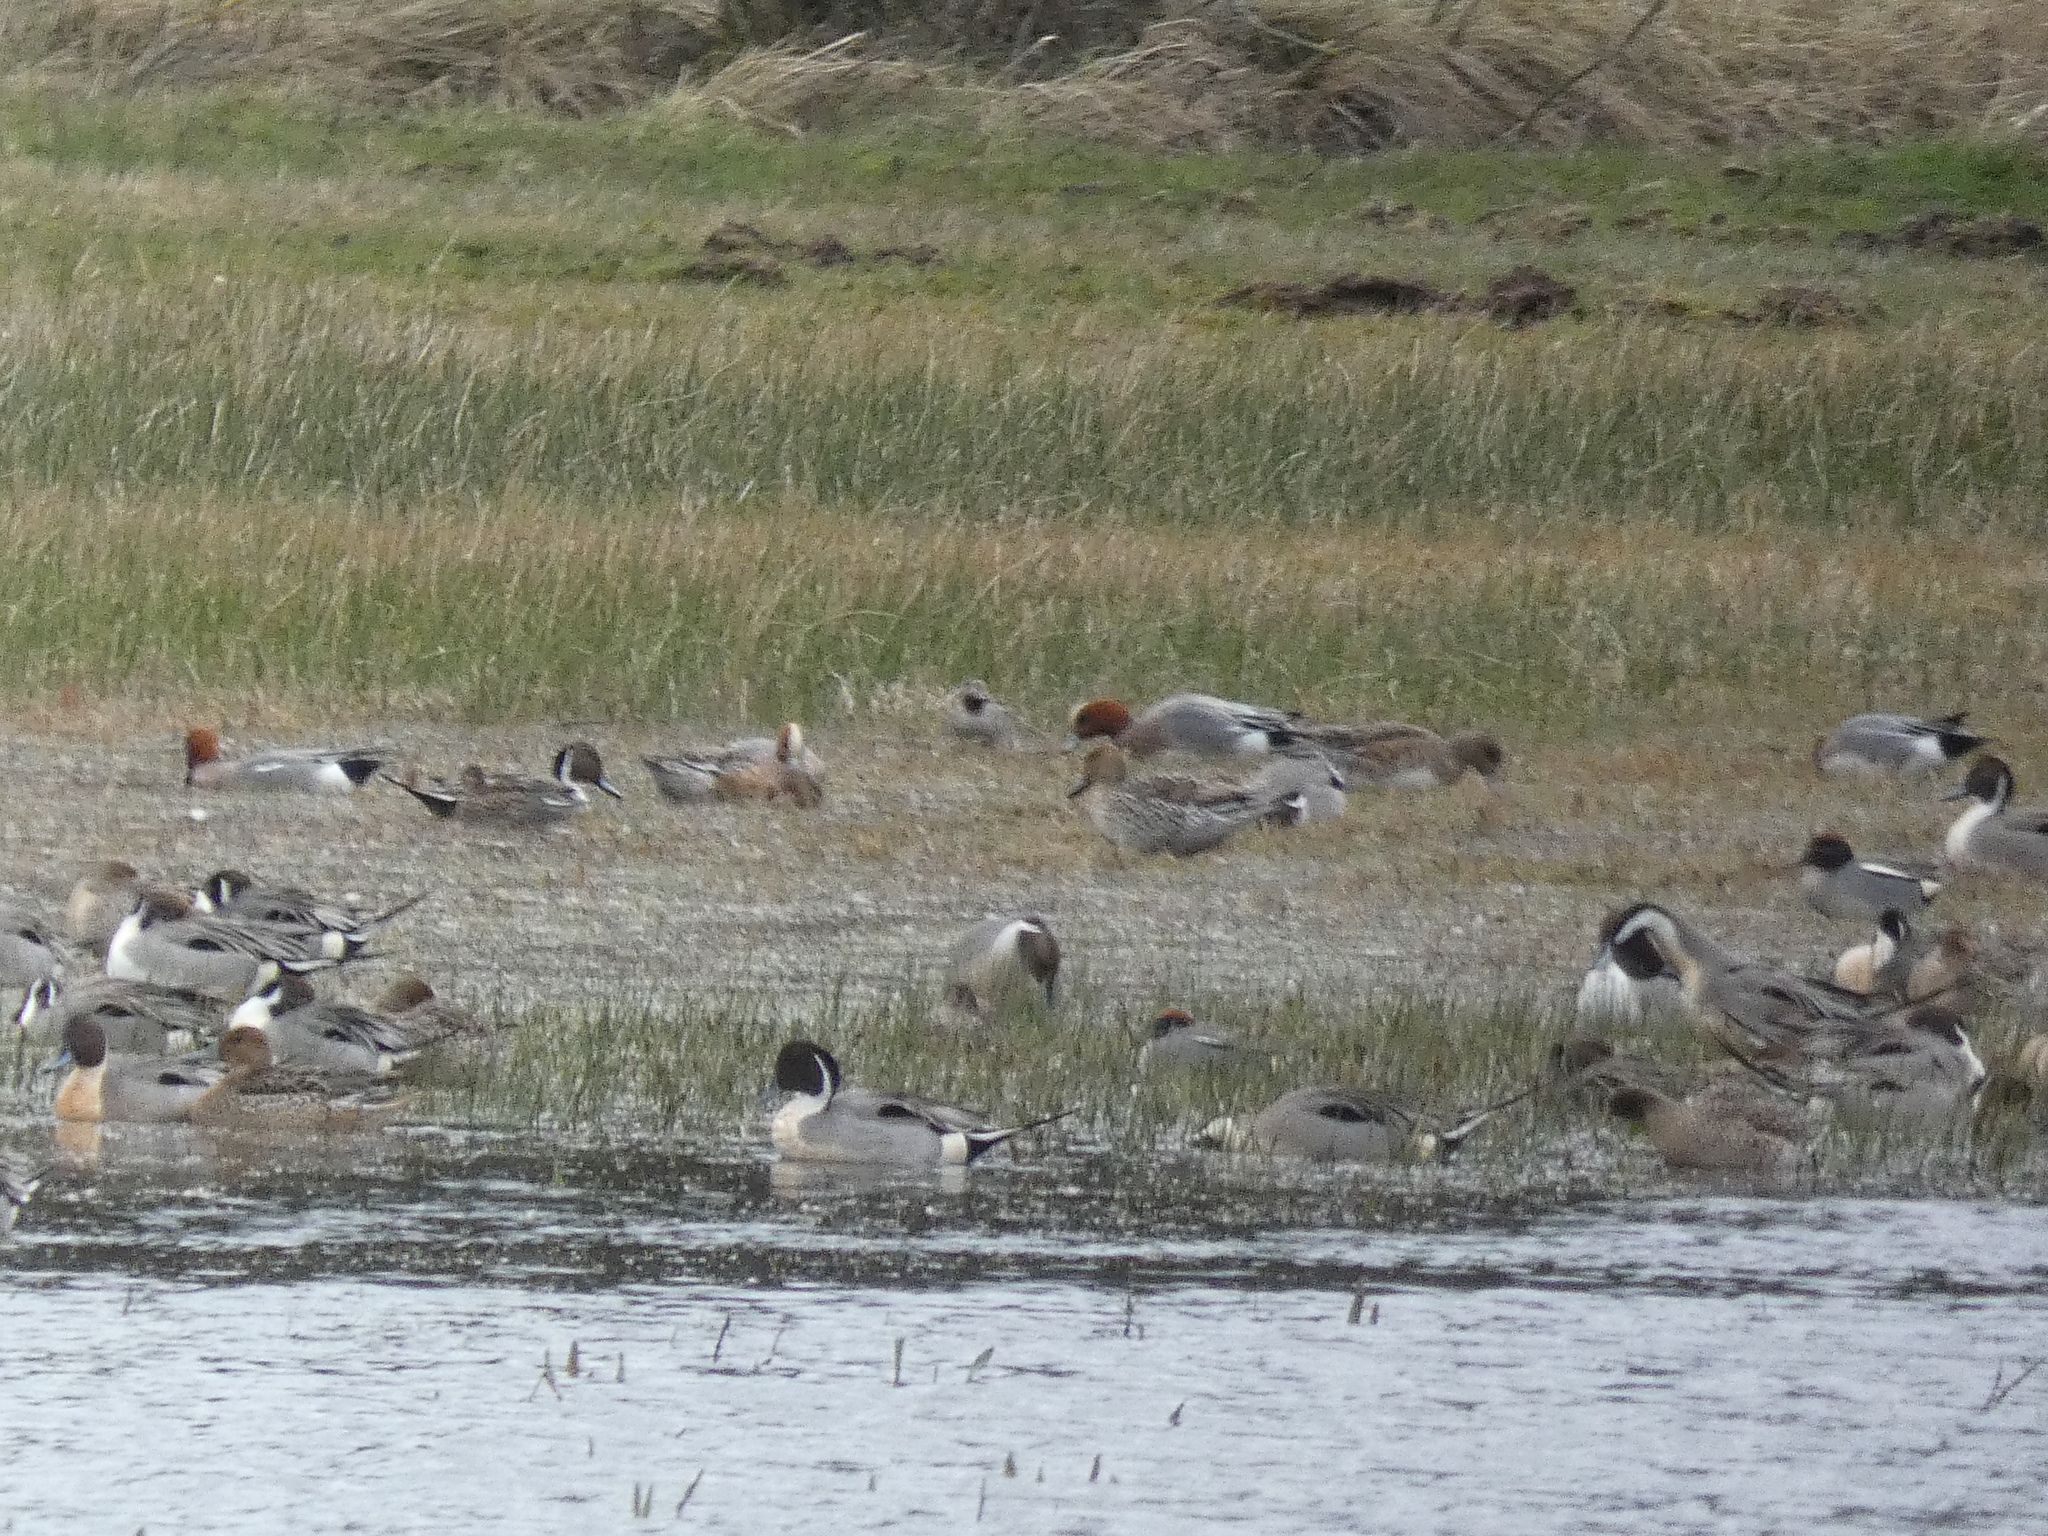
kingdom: Animalia
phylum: Chordata
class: Aves
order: Anseriformes
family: Anatidae
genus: Mareca
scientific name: Mareca penelope
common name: Eurasian wigeon
